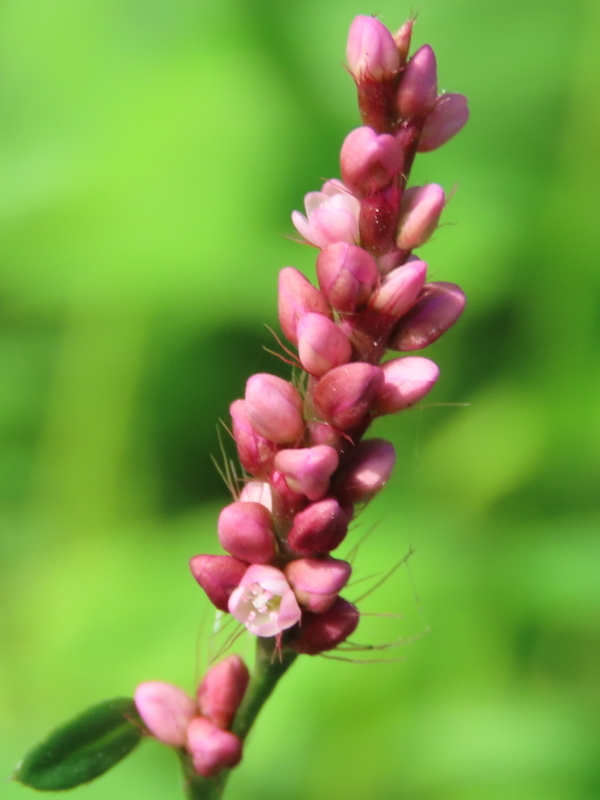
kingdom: Plantae
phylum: Tracheophyta
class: Magnoliopsida
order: Caryophyllales
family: Polygonaceae
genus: Persicaria
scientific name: Persicaria longiseta
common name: Bristly lady's-thumb
